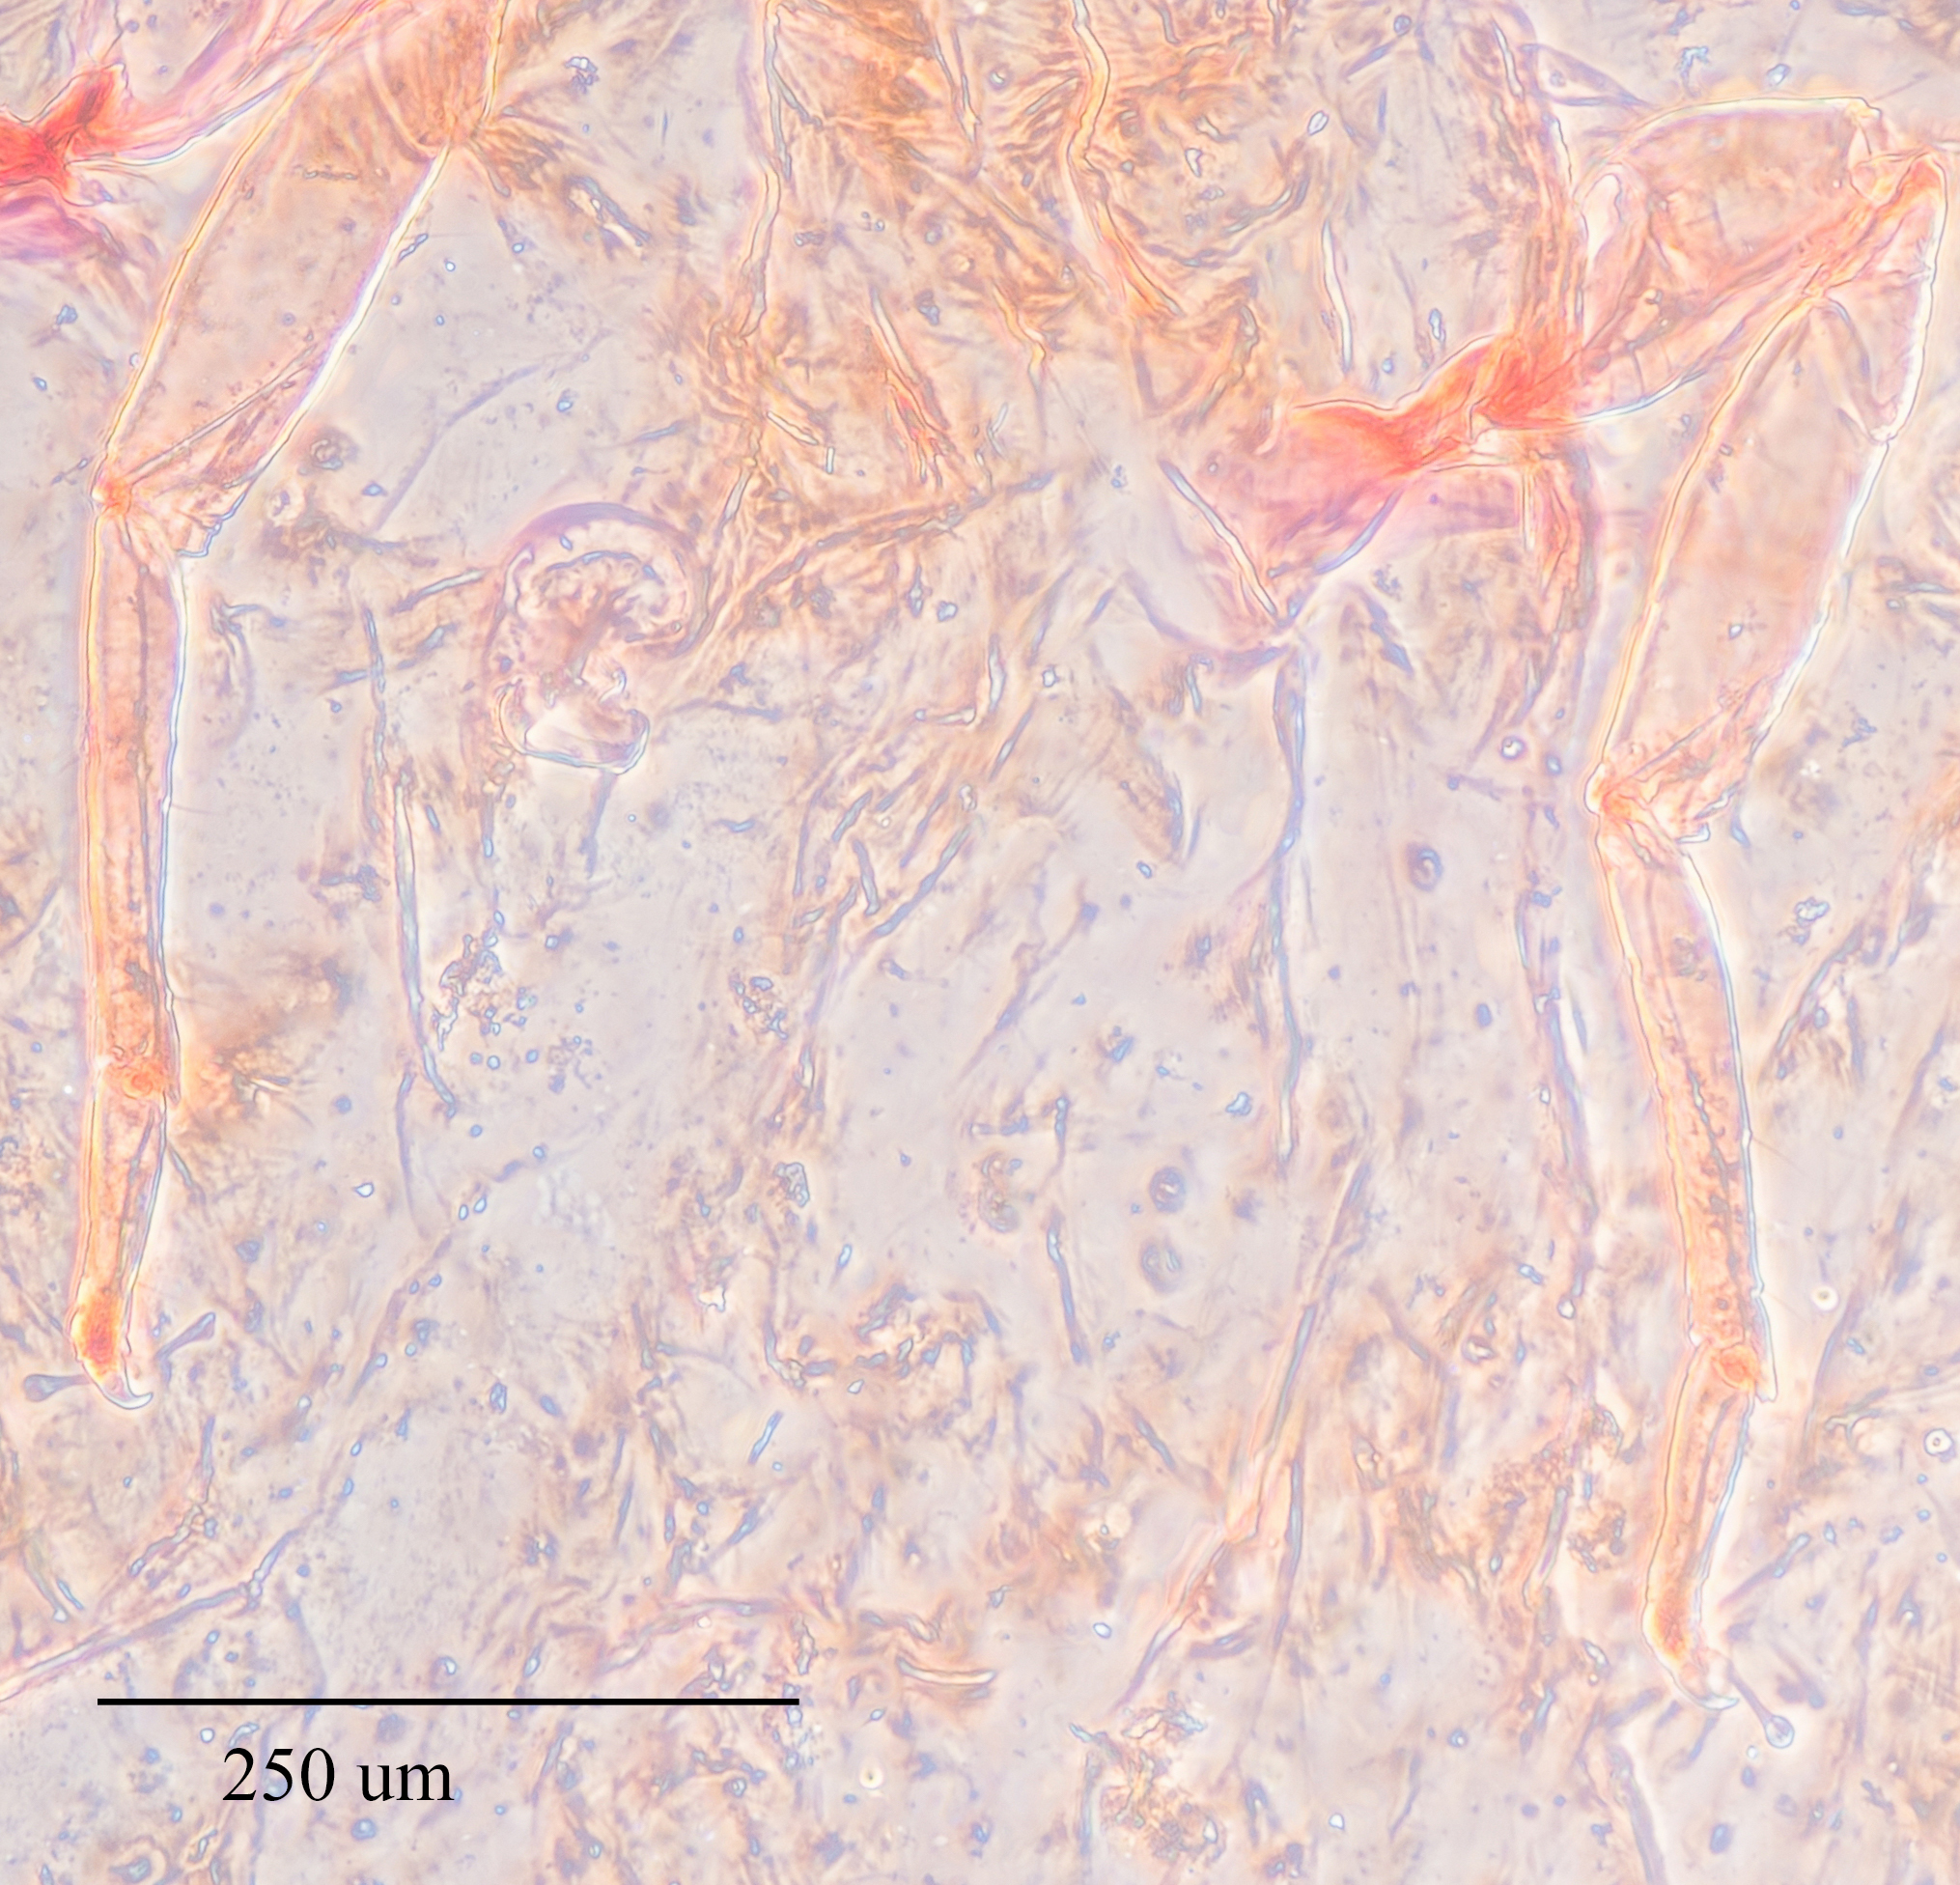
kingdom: Animalia
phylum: Arthropoda
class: Insecta
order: Hemiptera
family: Coccidae
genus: Pulvinaria
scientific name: Pulvinaria floccifera
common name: Cottony camellia scale
